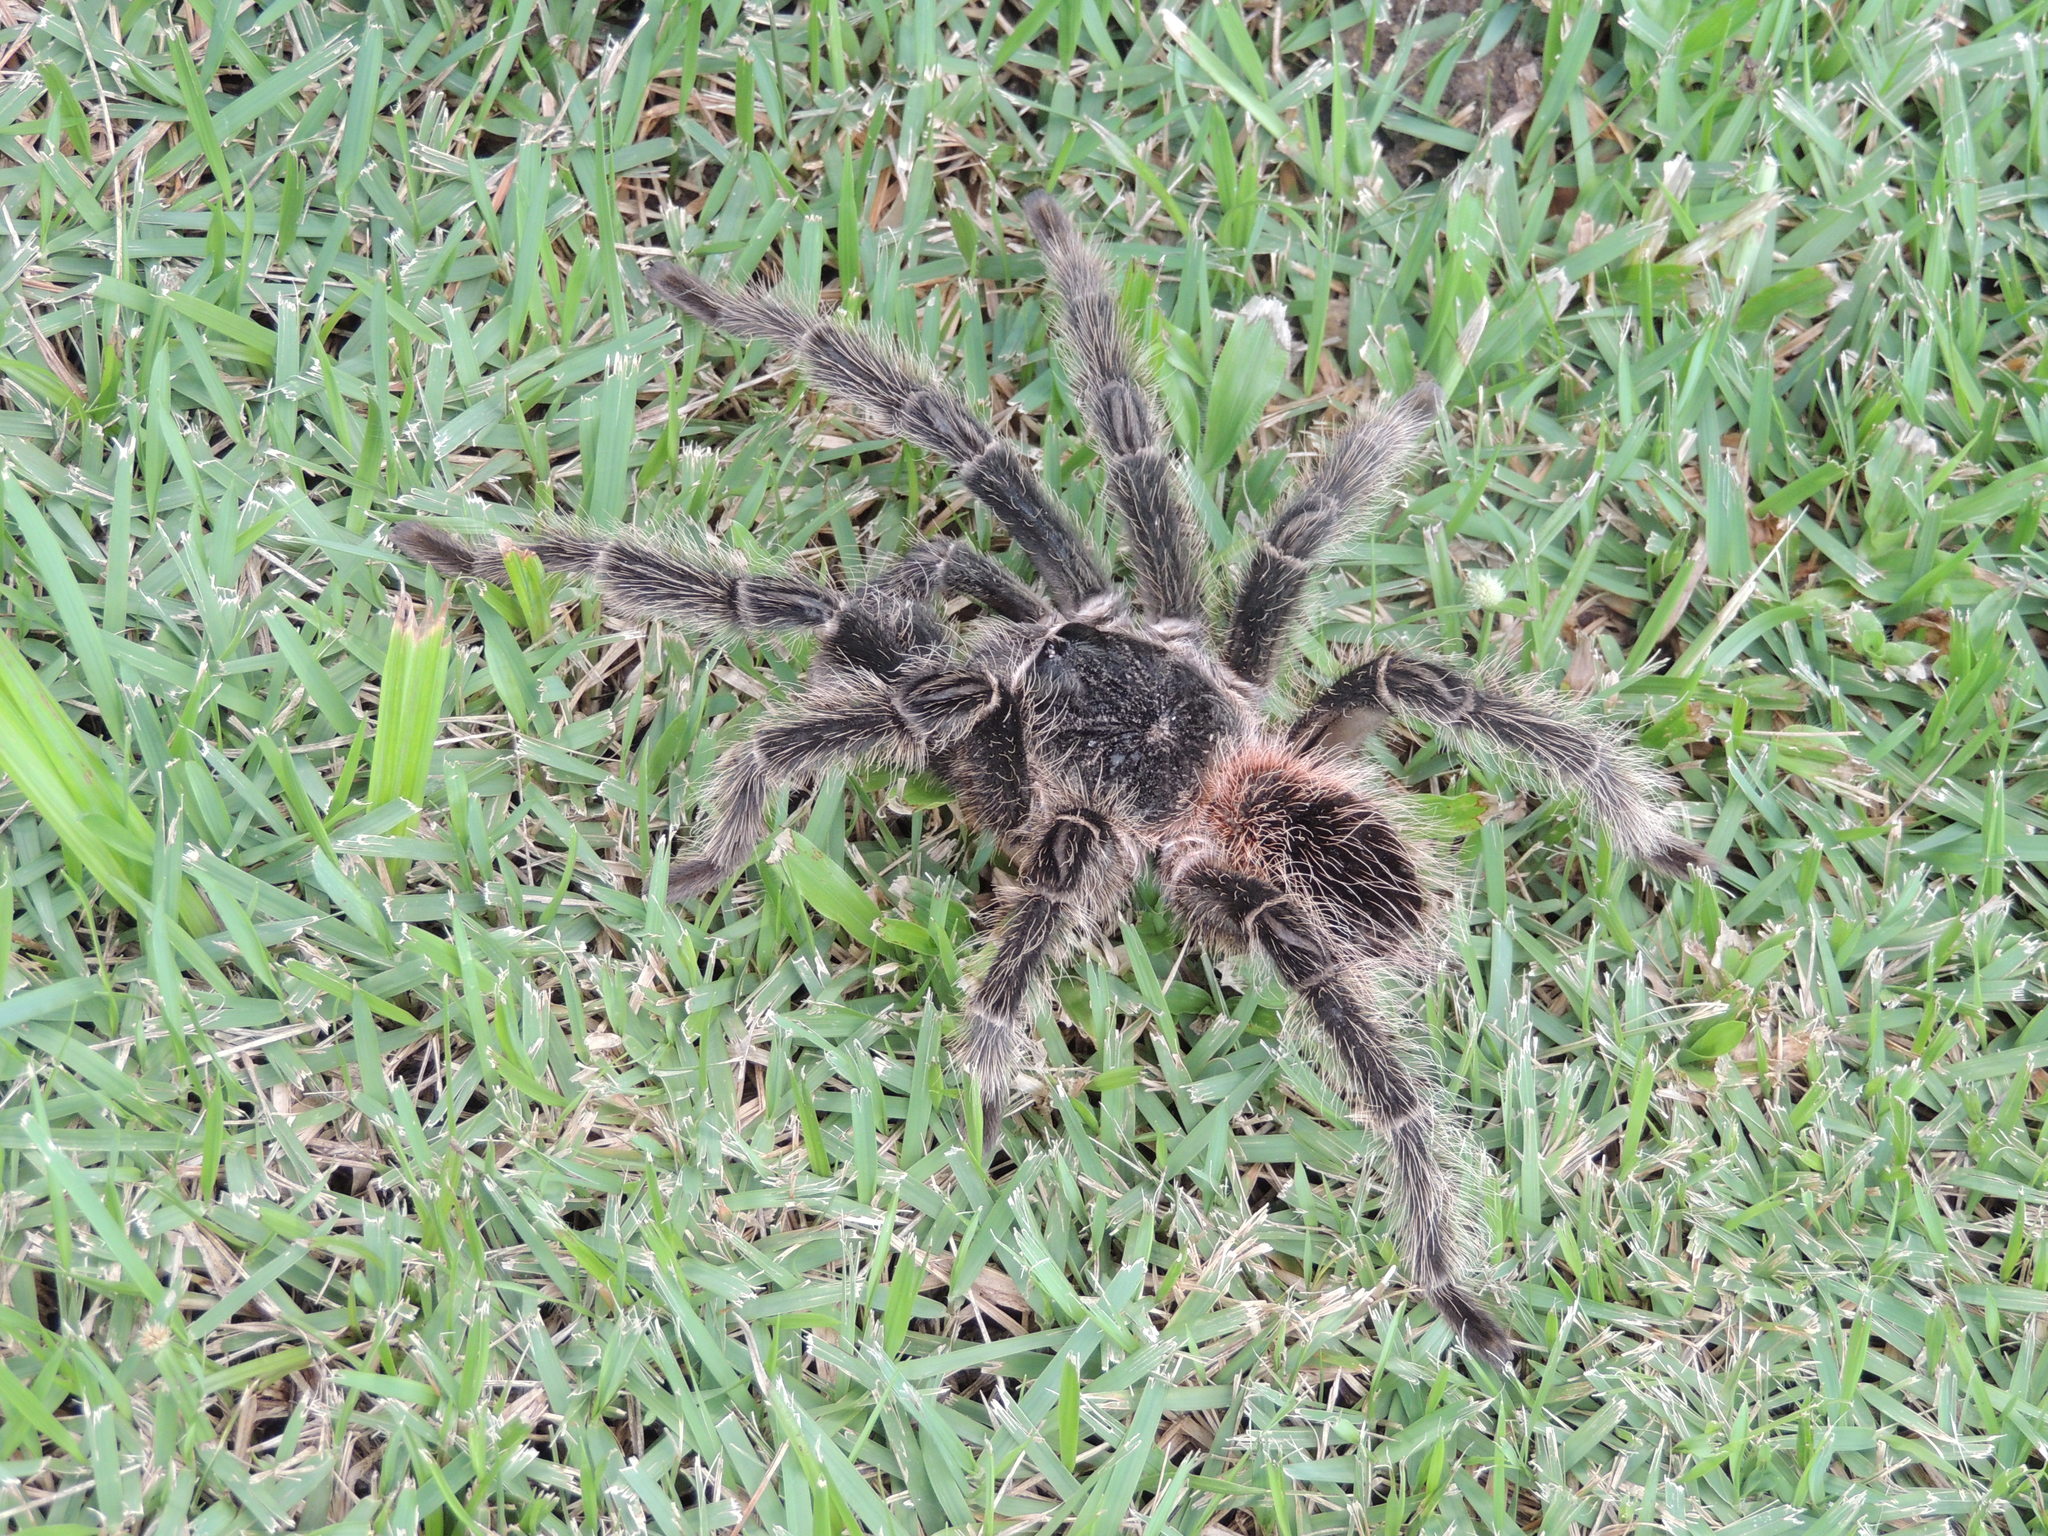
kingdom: Animalia
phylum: Arthropoda
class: Arachnida
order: Araneae
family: Theraphosidae
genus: Lasiodora
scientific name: Lasiodora parahybana
